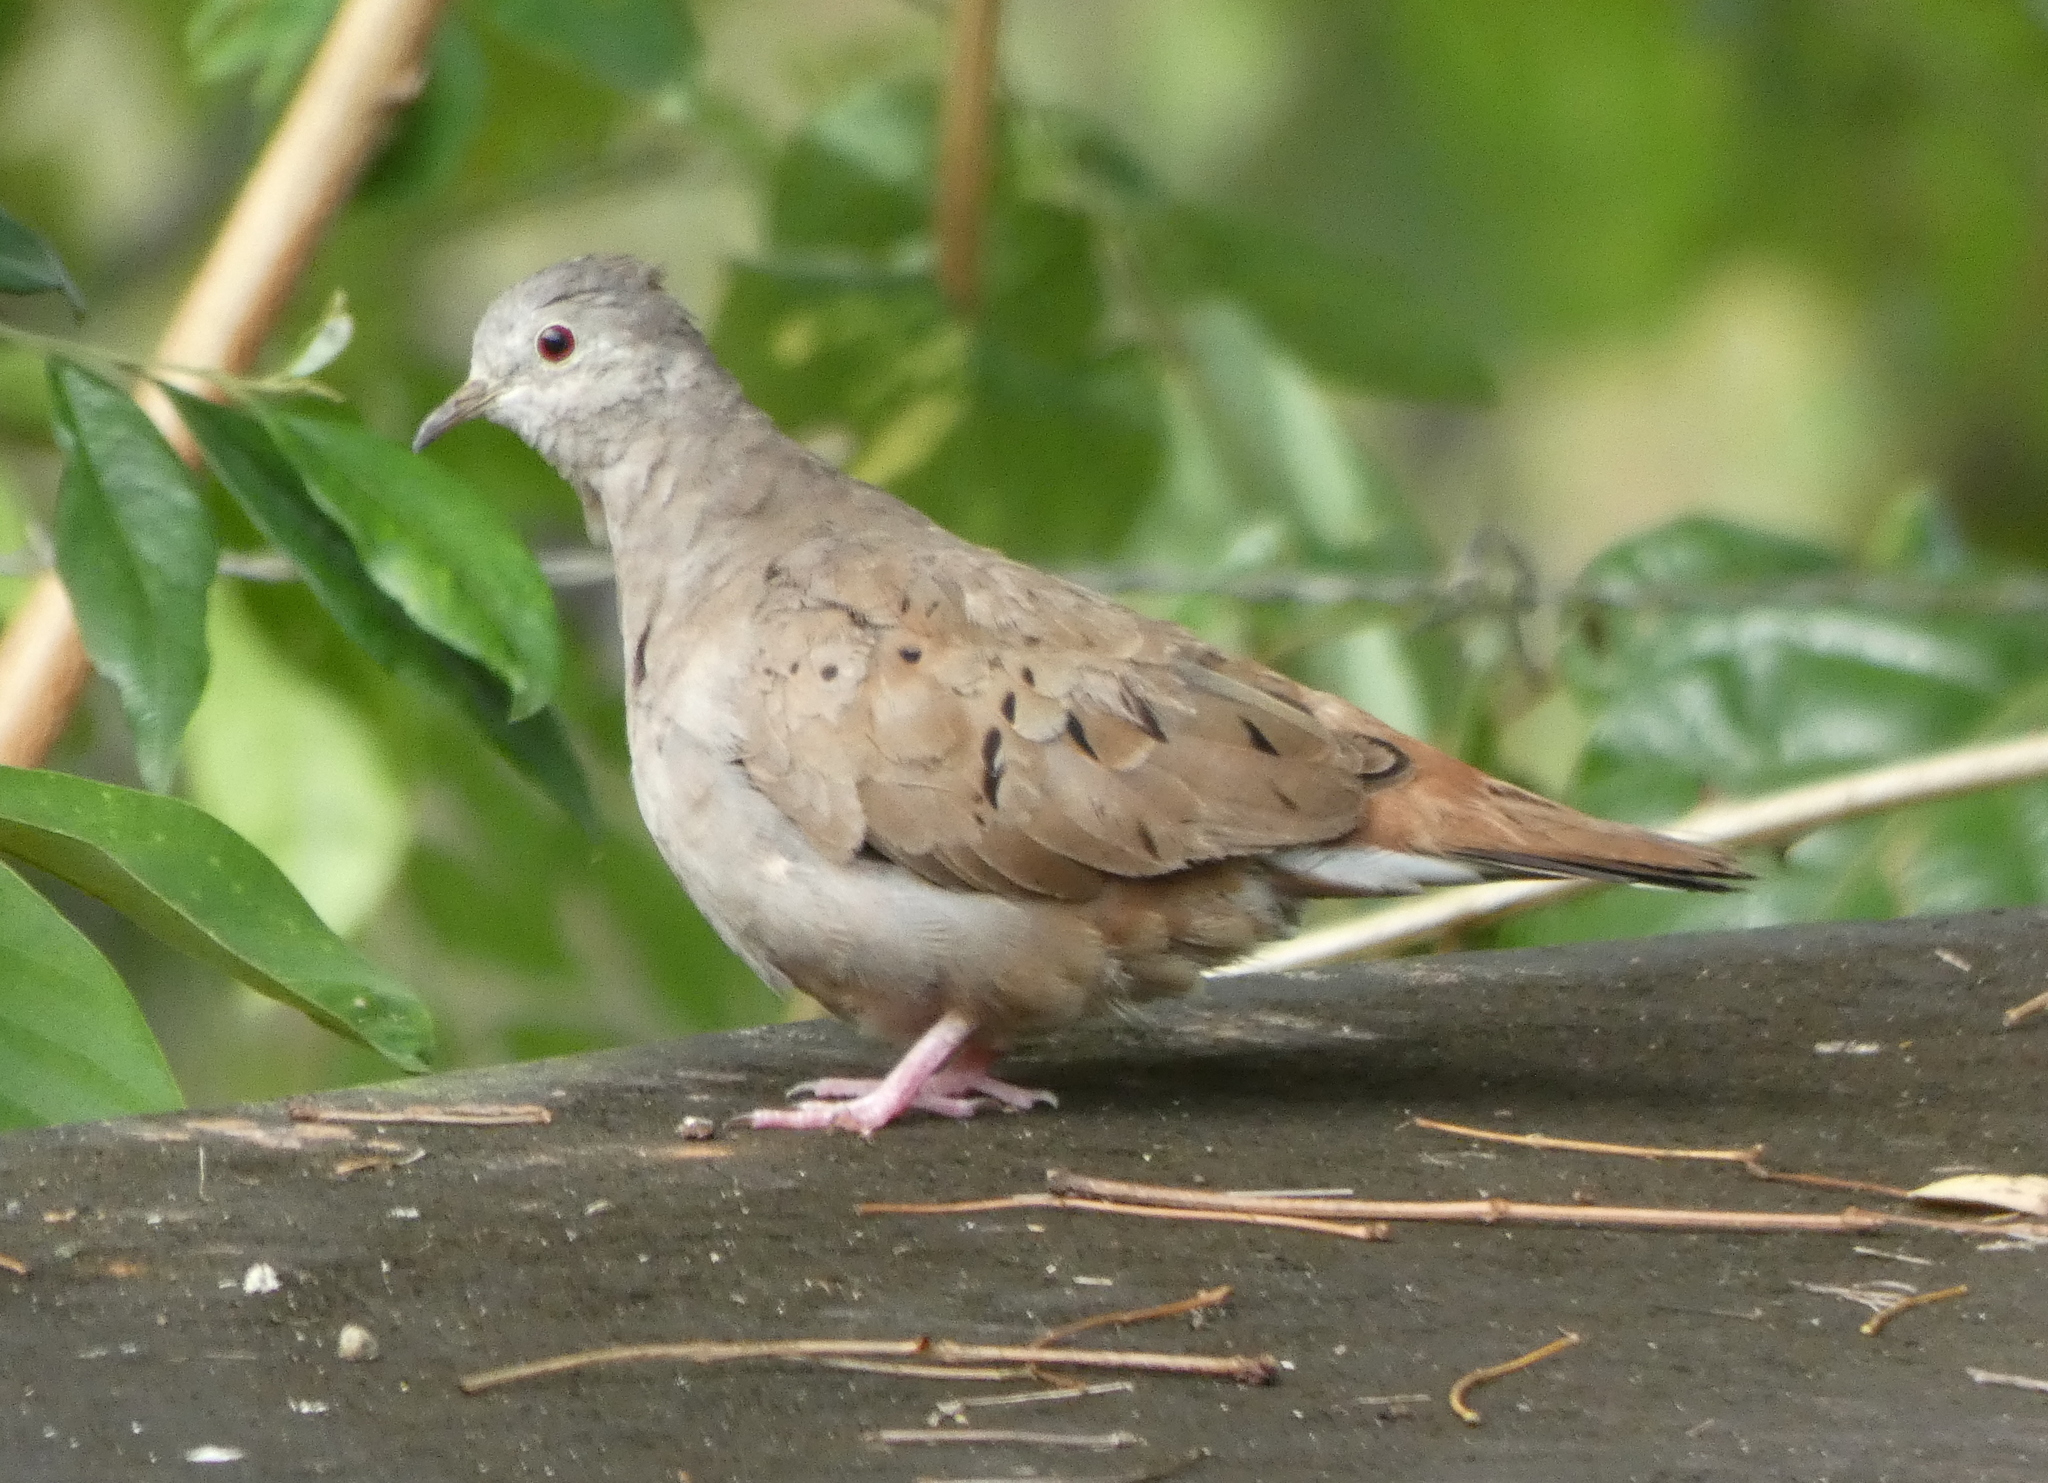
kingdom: Animalia
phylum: Chordata
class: Aves
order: Columbiformes
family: Columbidae
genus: Columbina
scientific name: Columbina talpacoti
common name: Ruddy ground dove
